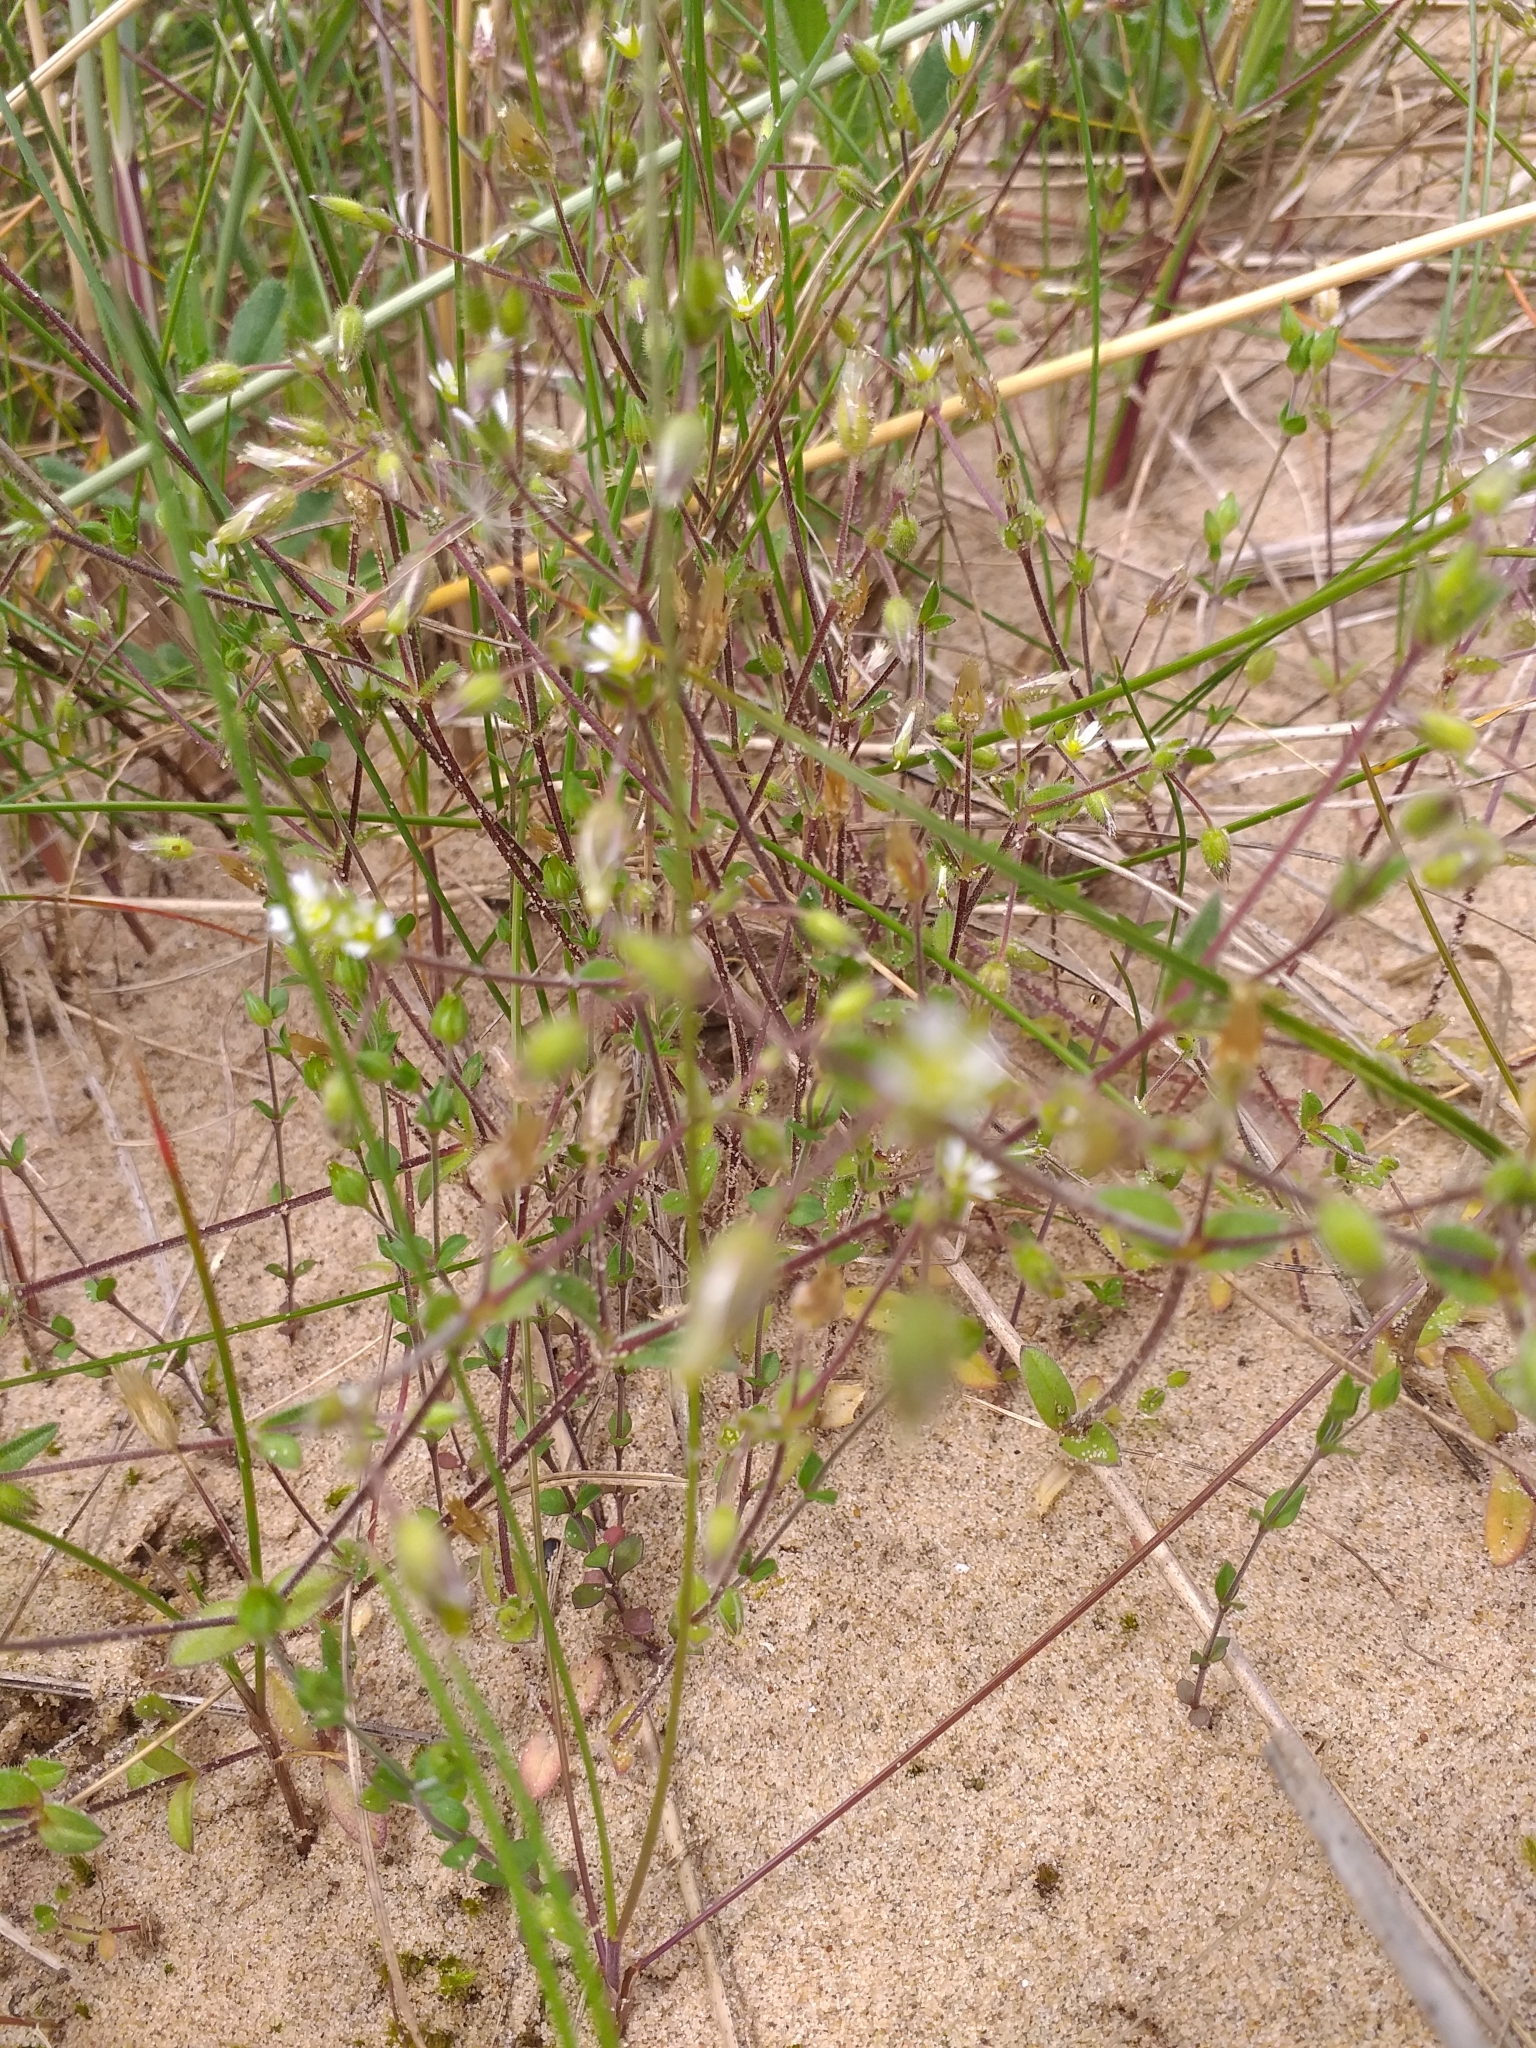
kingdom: Plantae
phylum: Tracheophyta
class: Magnoliopsida
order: Caryophyllales
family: Caryophyllaceae
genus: Arenaria
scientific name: Arenaria serpyllifolia
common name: Thyme-leaved sandwort
